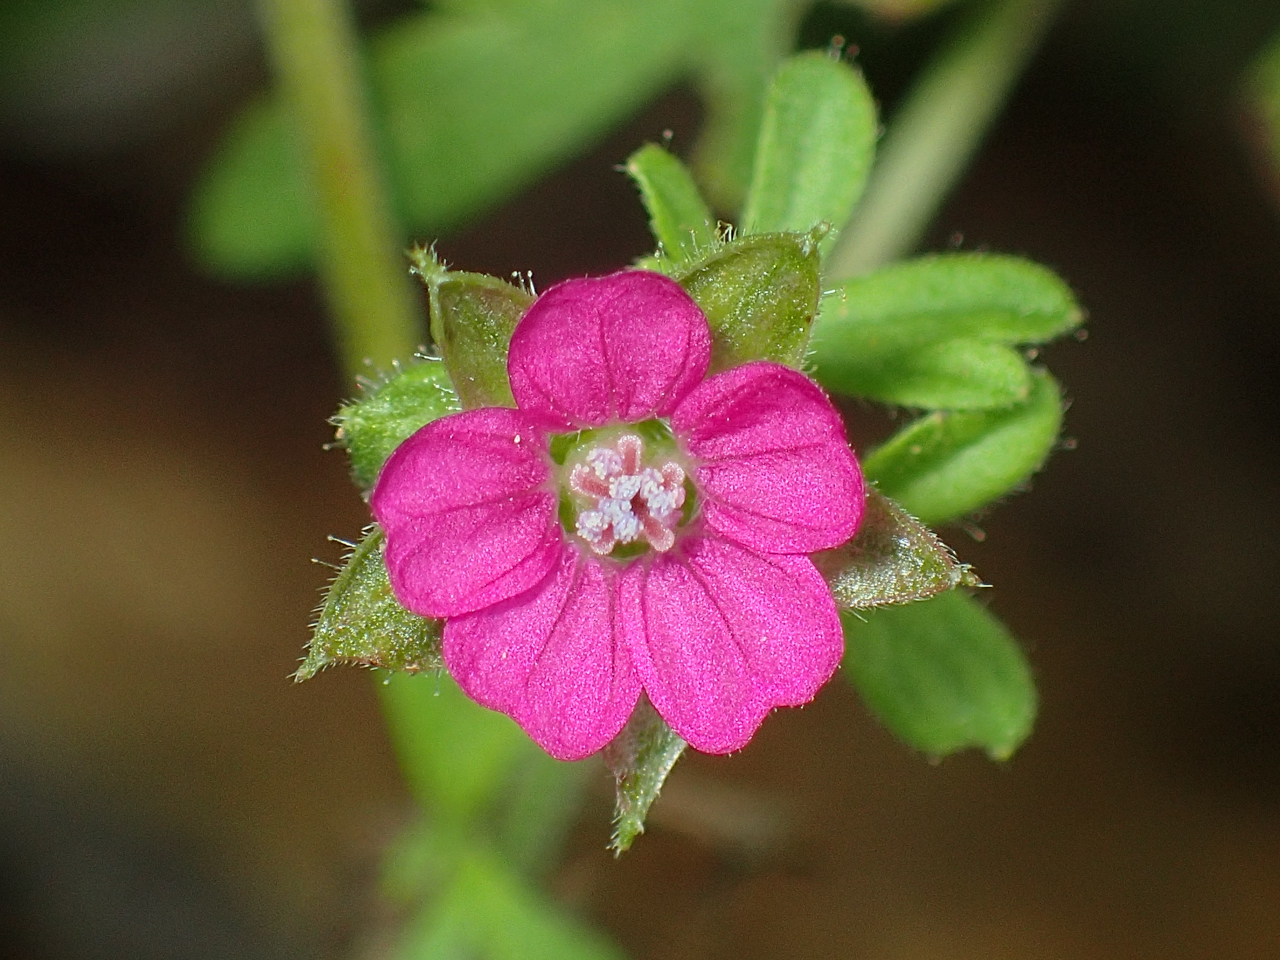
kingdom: Plantae
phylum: Tracheophyta
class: Magnoliopsida
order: Geraniales
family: Geraniaceae
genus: Geranium
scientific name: Geranium dissectum
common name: Cut-leaved crane's-bill
